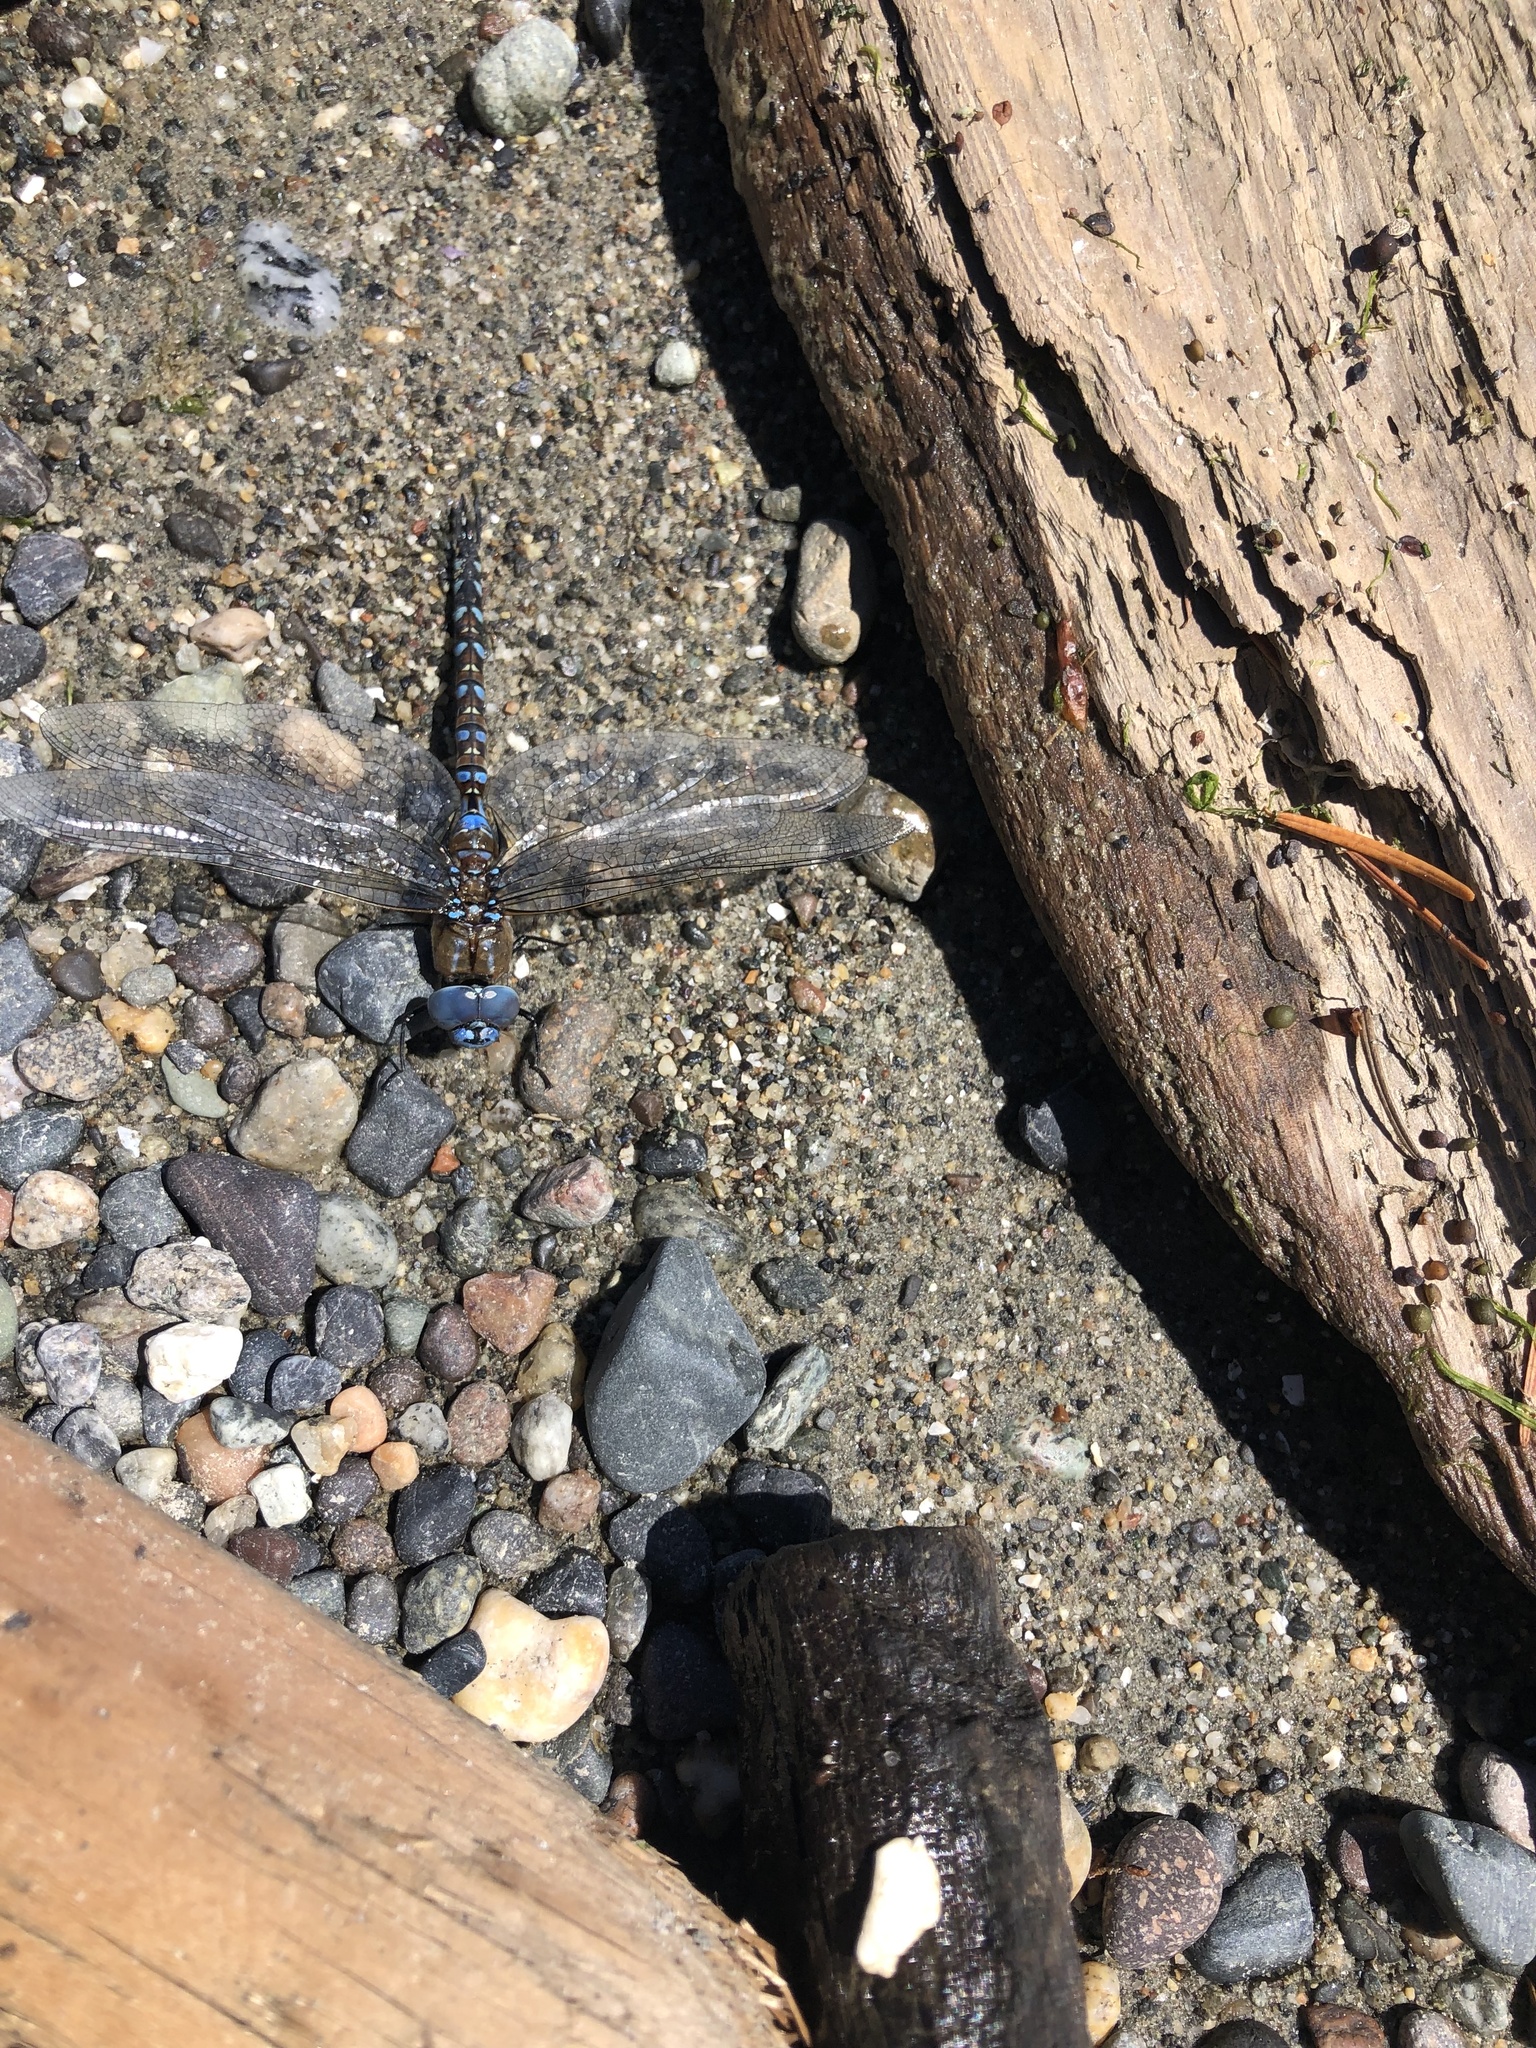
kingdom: Animalia
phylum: Arthropoda
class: Insecta
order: Odonata
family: Aeshnidae
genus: Rhionaeschna
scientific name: Rhionaeschna multicolor
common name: Blue-eyed darner
